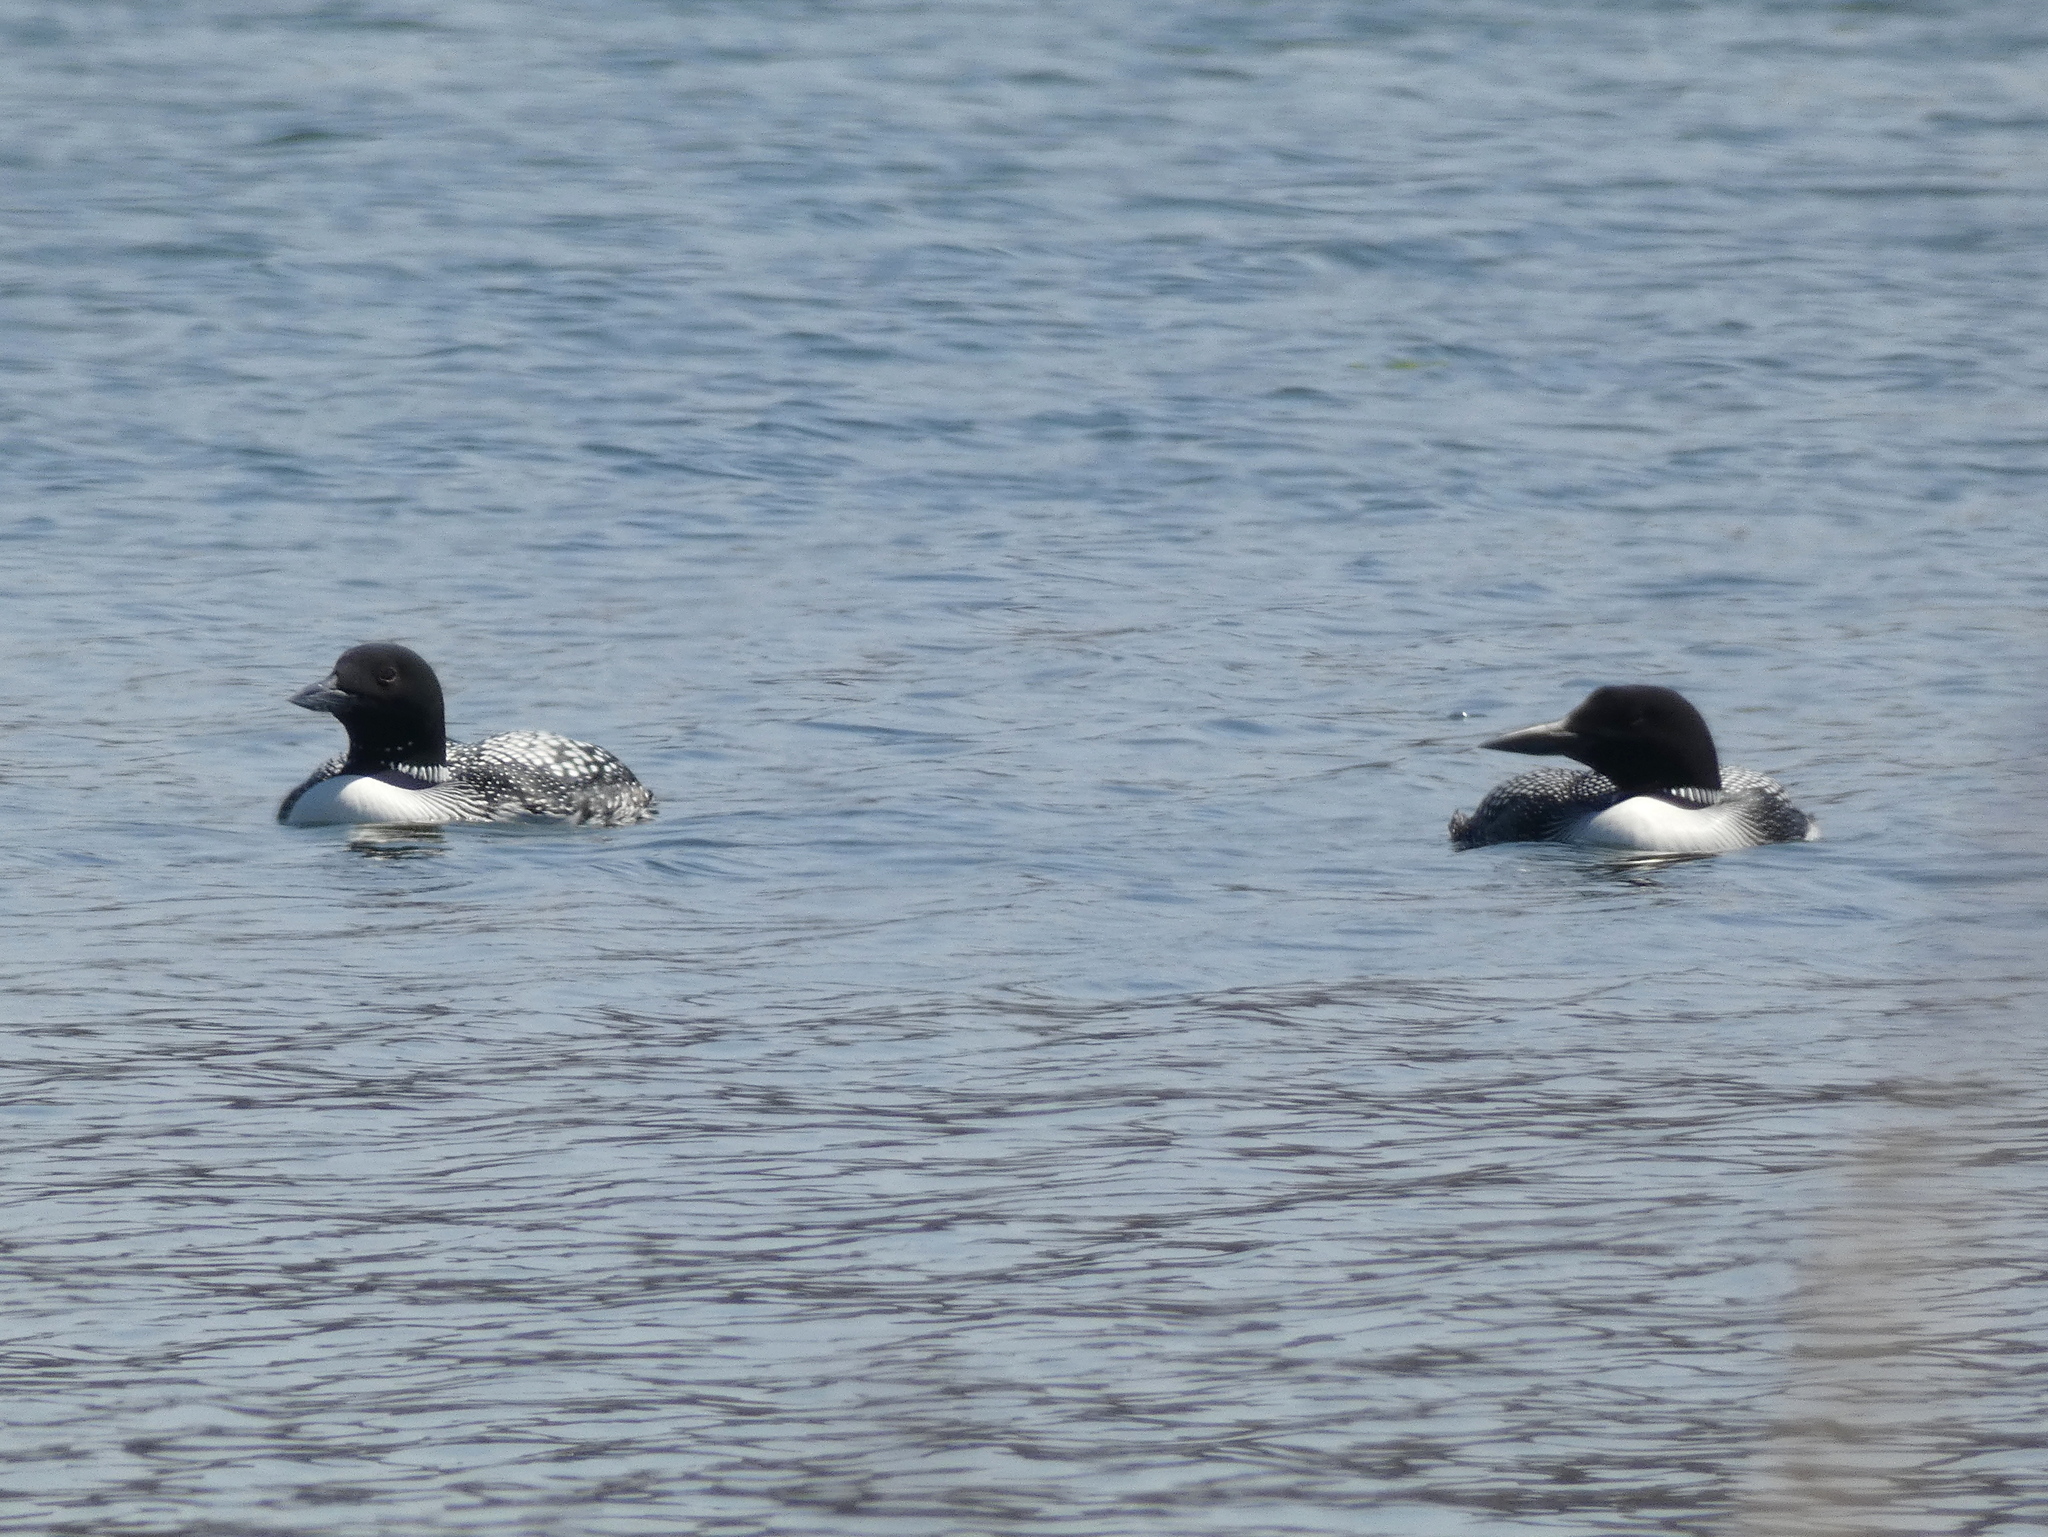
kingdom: Animalia
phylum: Chordata
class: Aves
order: Gaviiformes
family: Gaviidae
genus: Gavia
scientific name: Gavia immer
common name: Common loon
